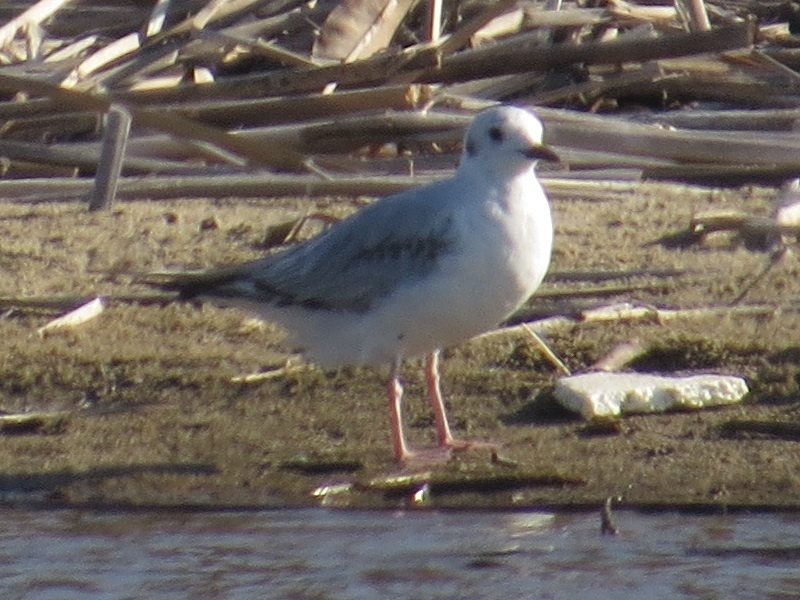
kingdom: Animalia
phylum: Chordata
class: Aves
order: Charadriiformes
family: Laridae
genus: Chroicocephalus
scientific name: Chroicocephalus philadelphia
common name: Bonaparte's gull
